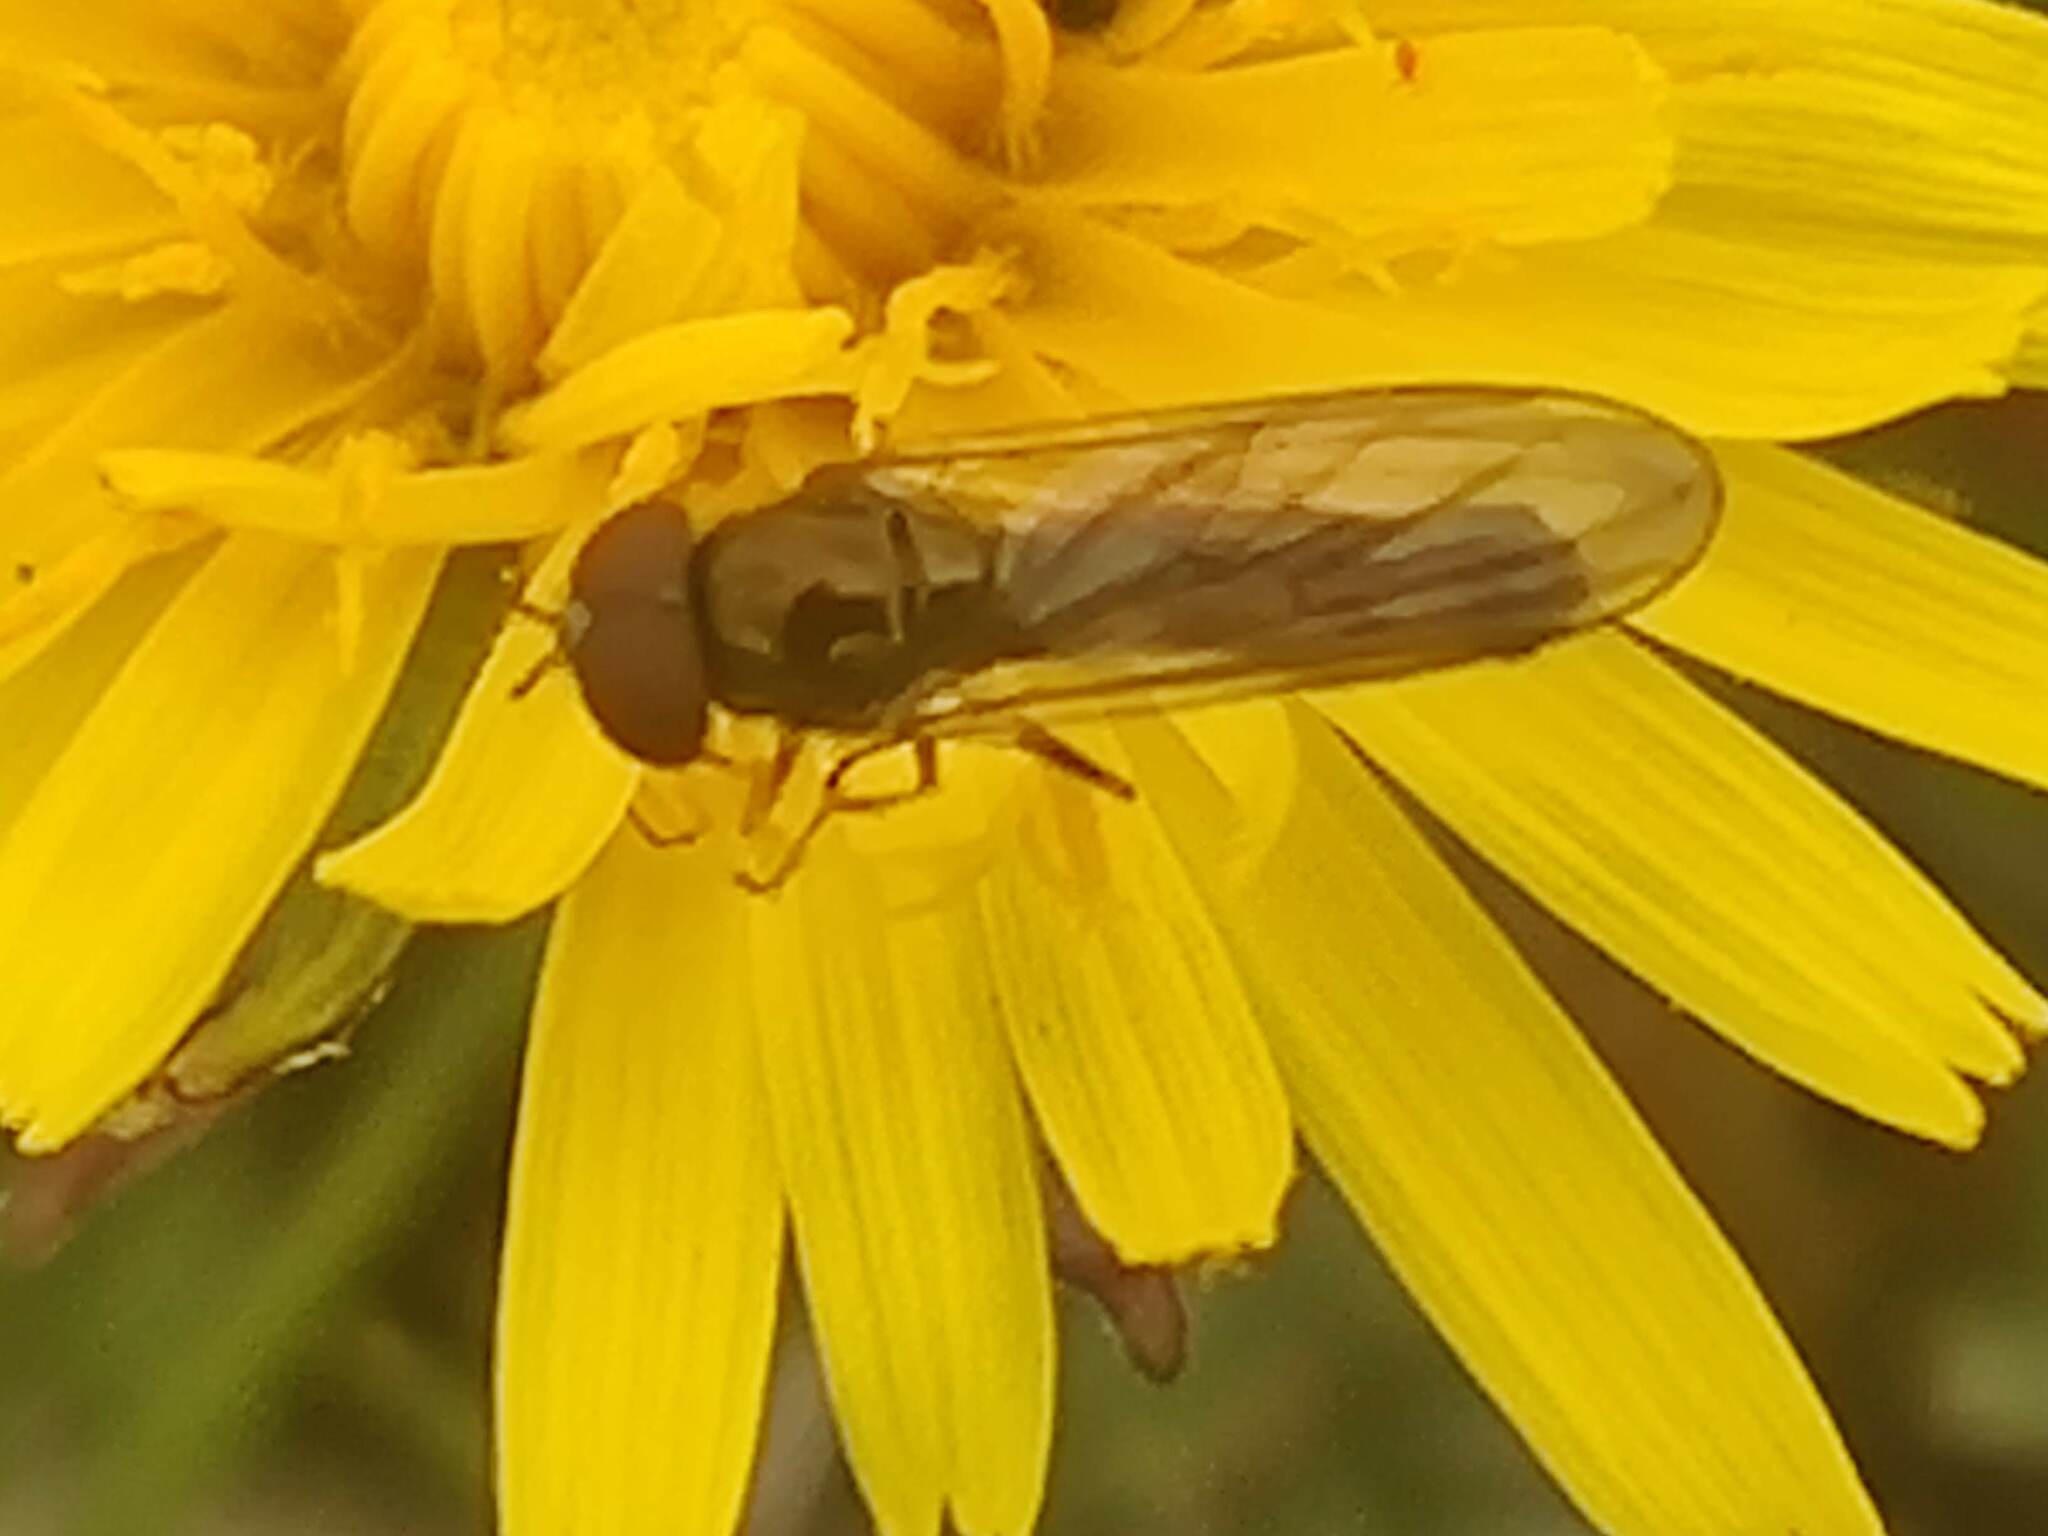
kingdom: Animalia
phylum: Arthropoda
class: Insecta
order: Diptera
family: Syrphidae
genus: Melanostoma
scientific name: Melanostoma scalare
